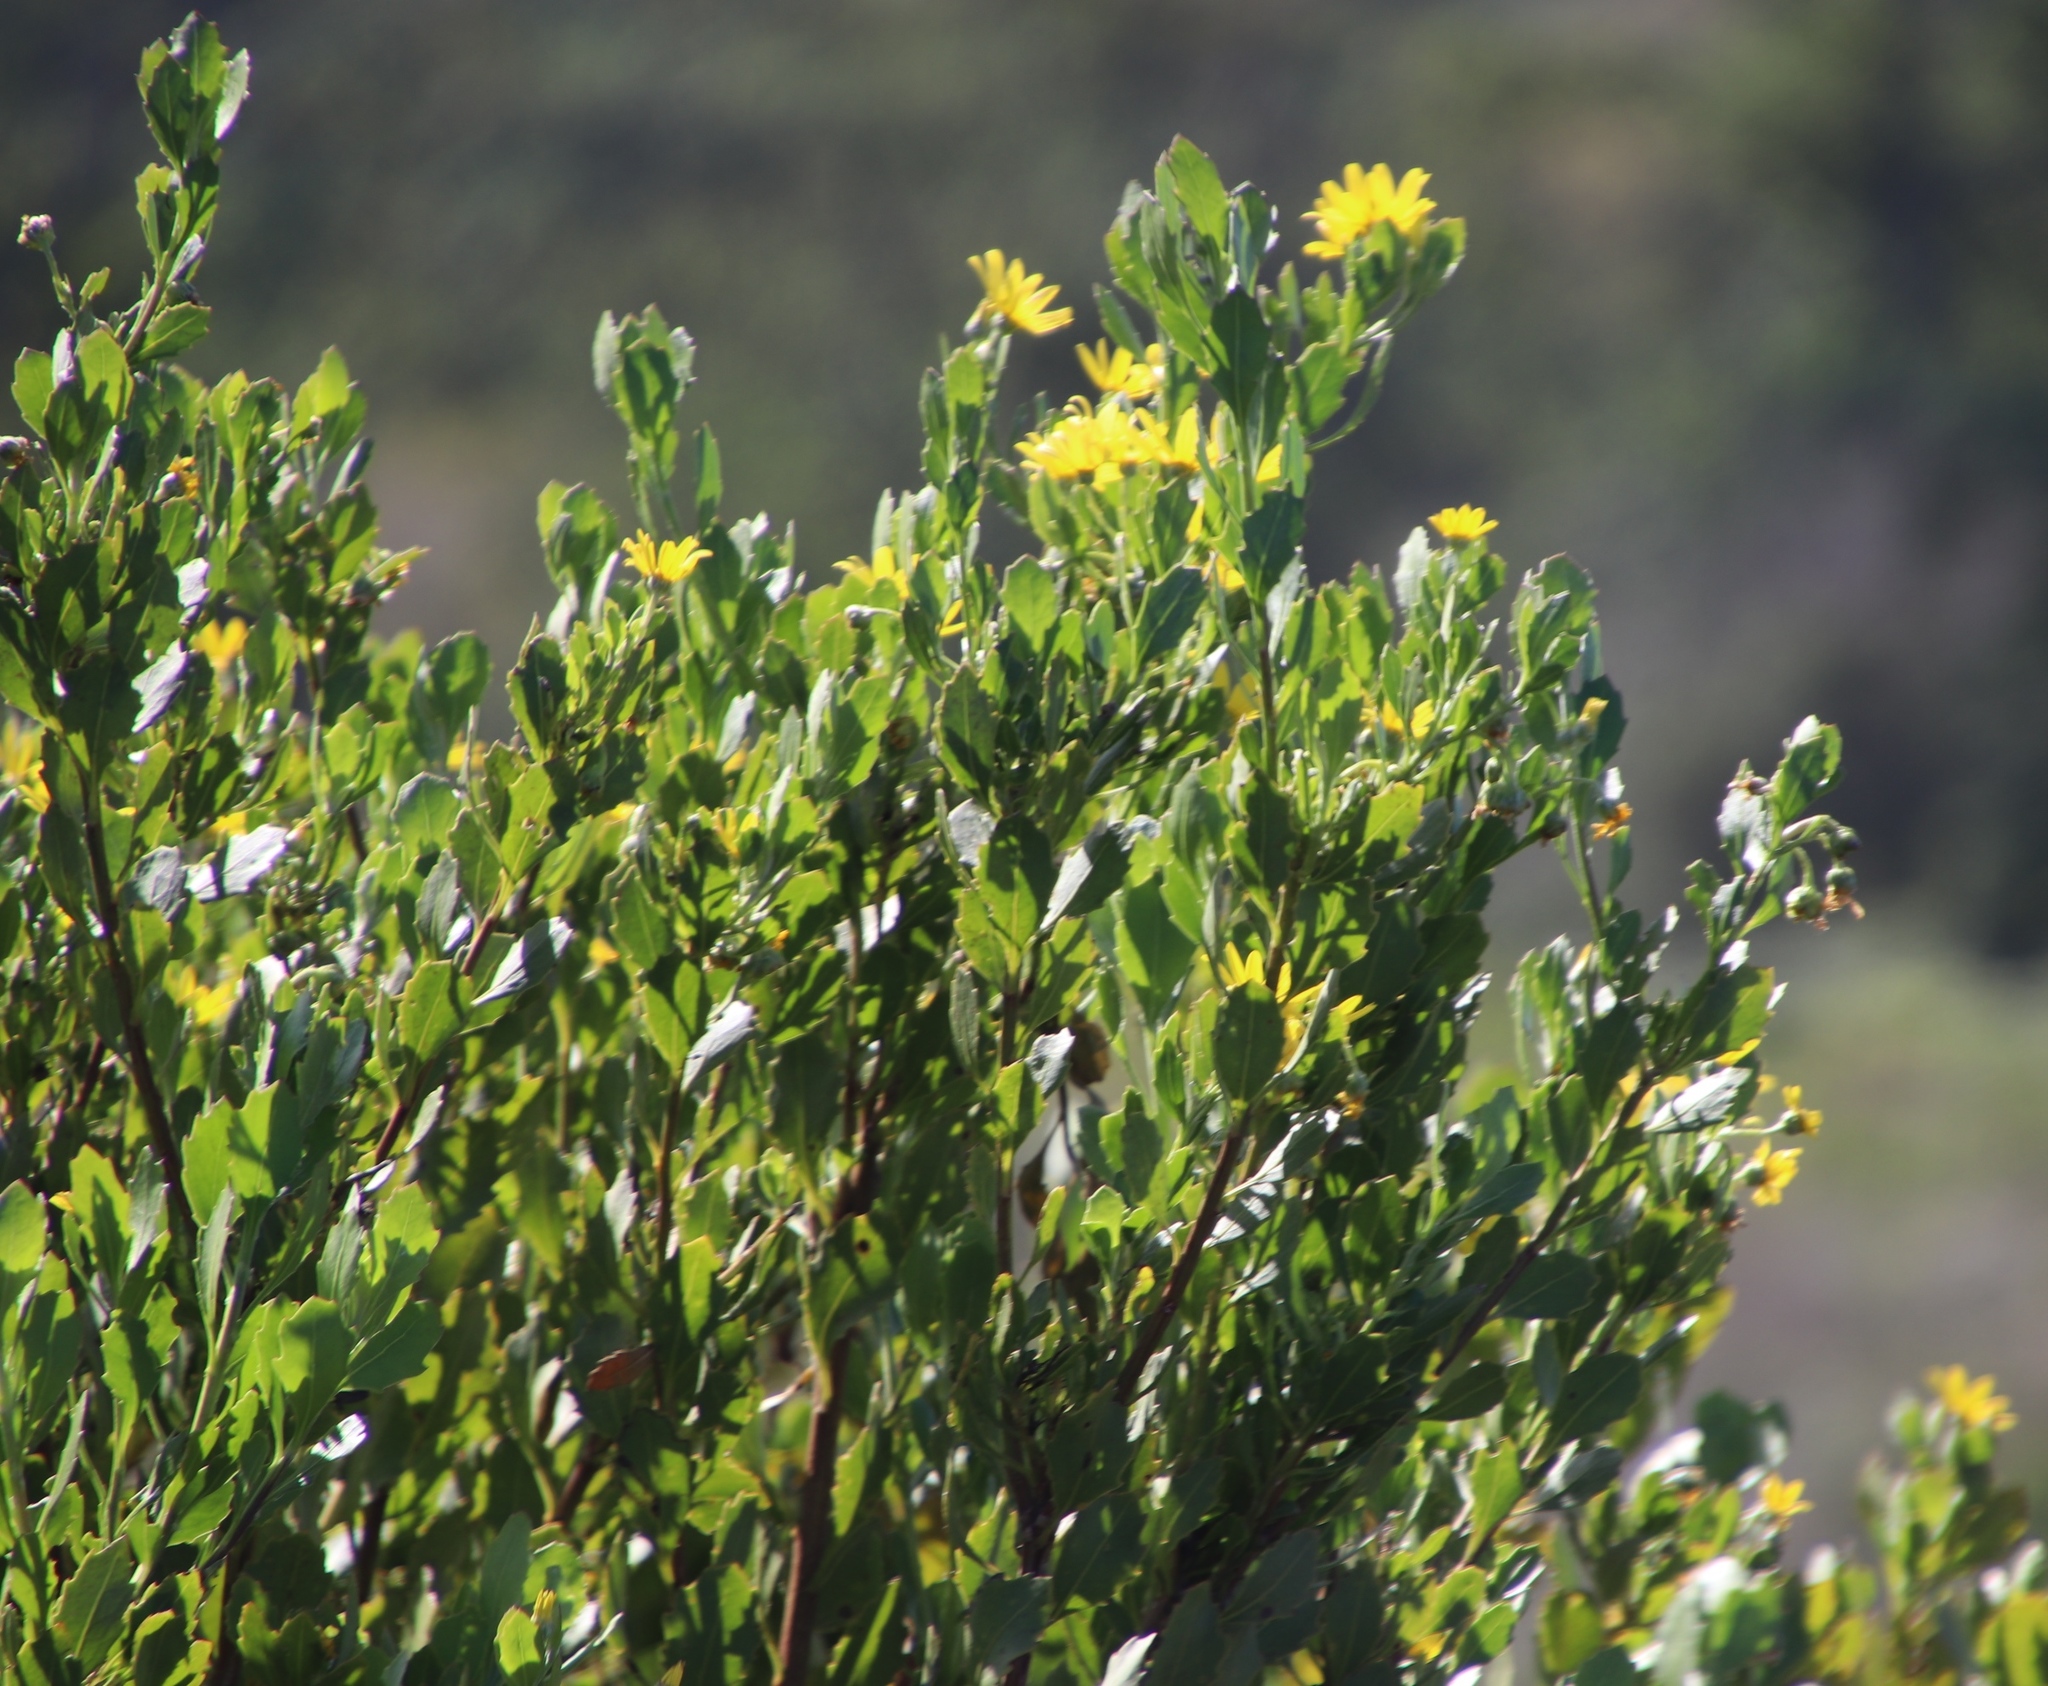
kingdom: Plantae
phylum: Tracheophyta
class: Magnoliopsida
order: Asterales
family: Asteraceae
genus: Osteospermum
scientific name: Osteospermum moniliferum
